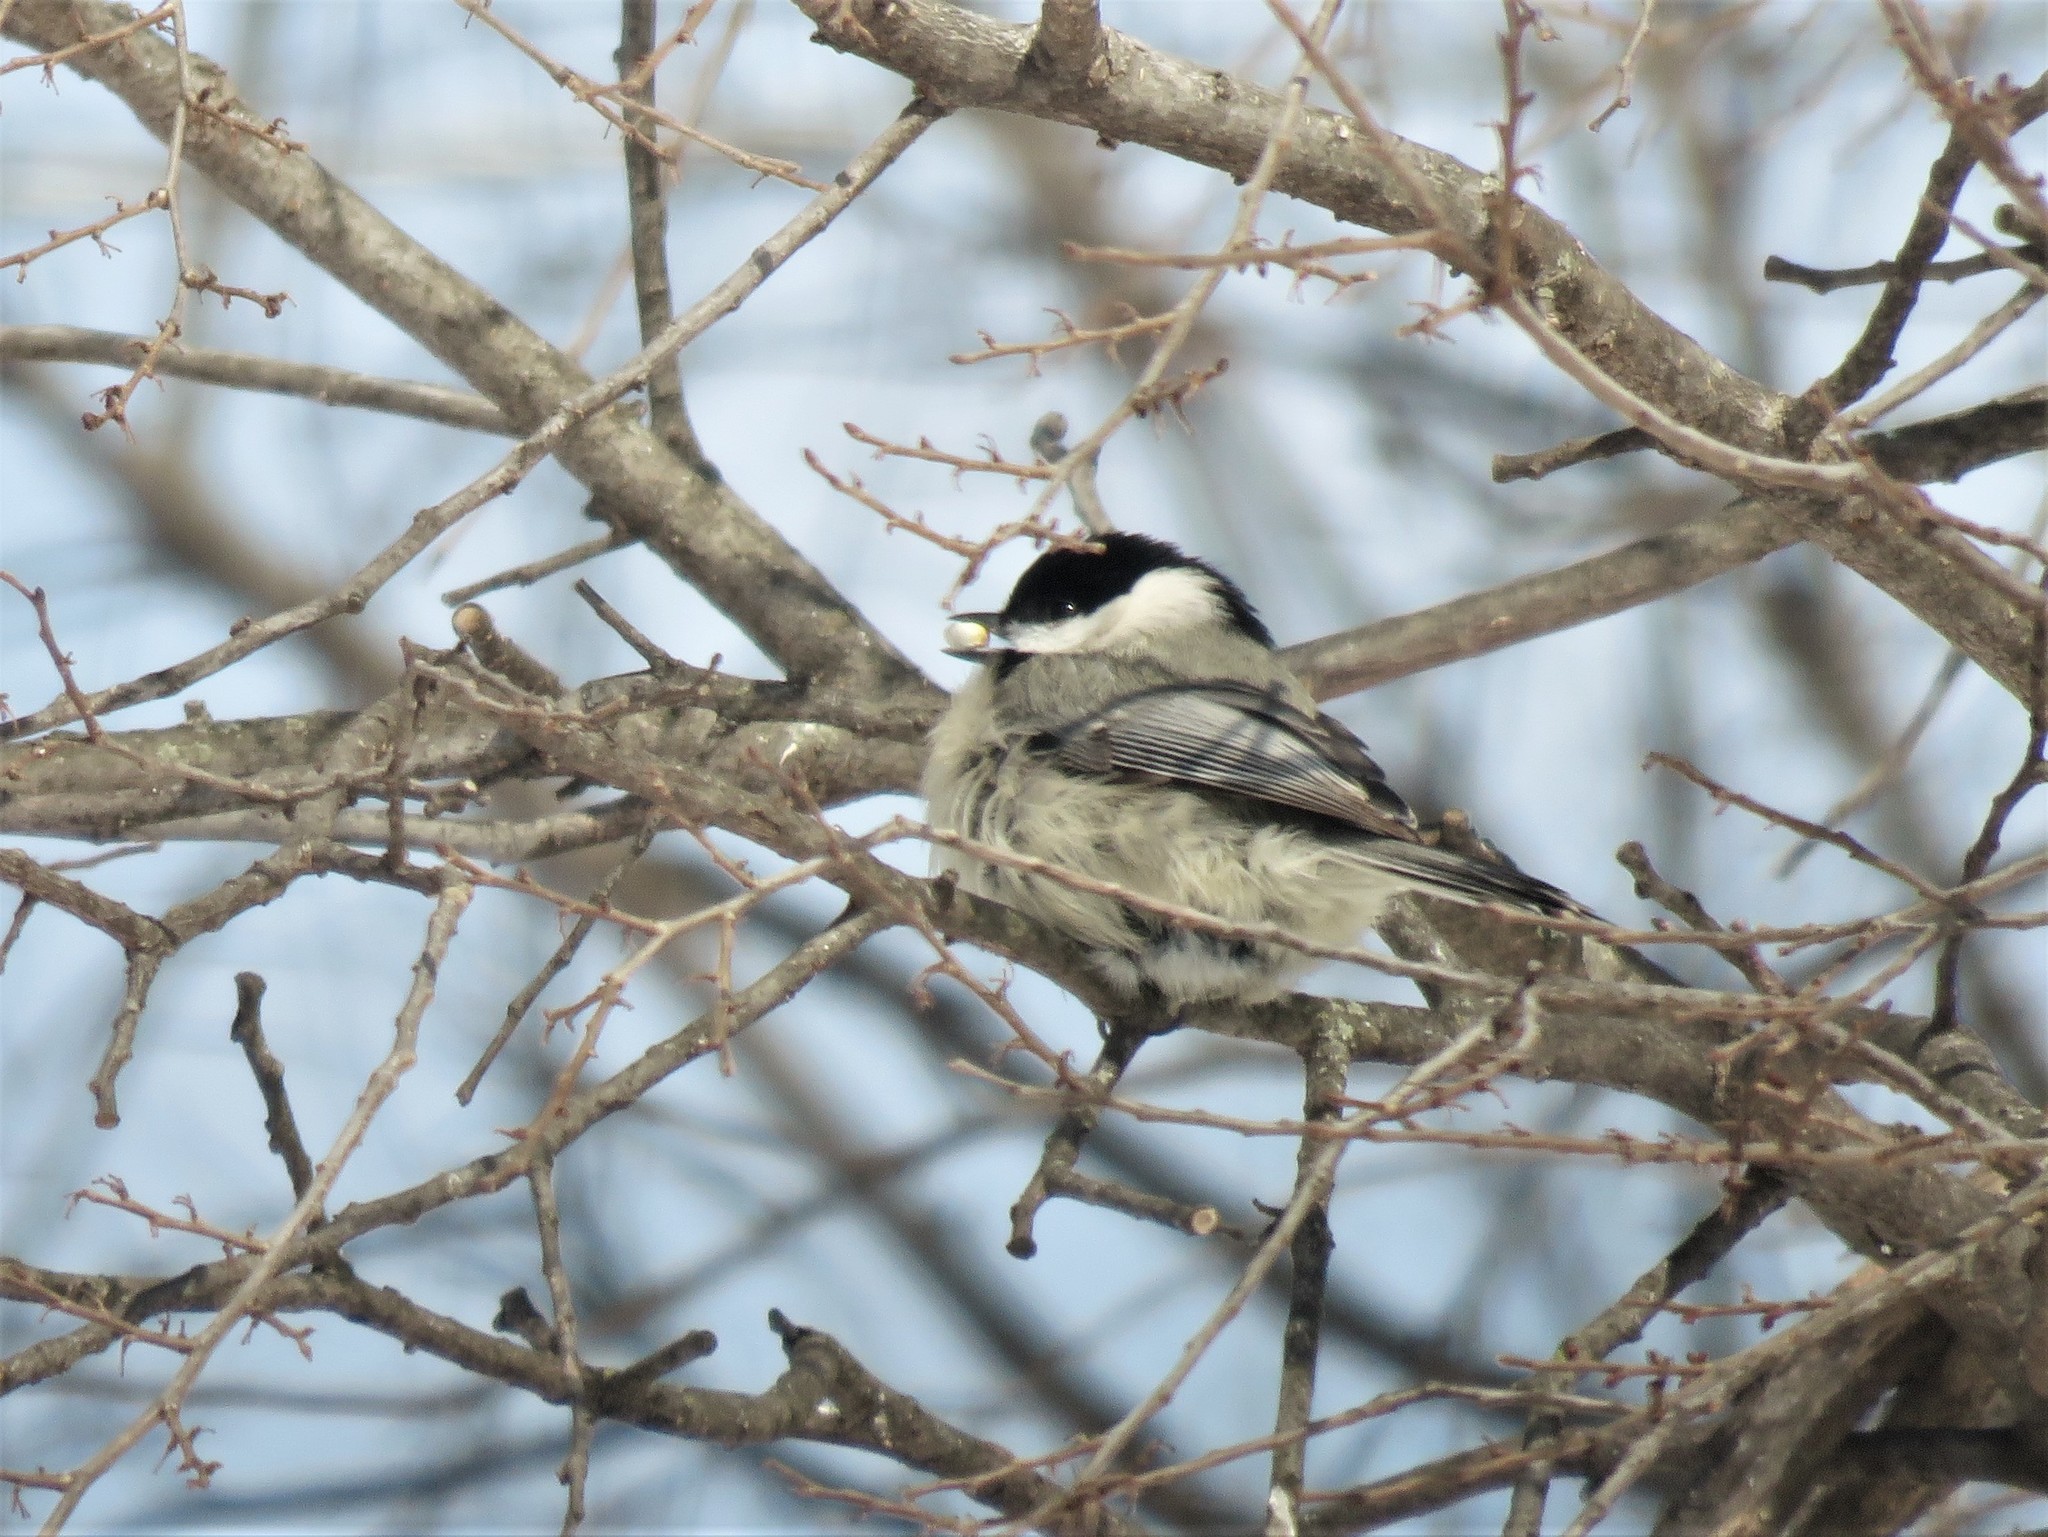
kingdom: Animalia
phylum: Chordata
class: Aves
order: Passeriformes
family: Paridae
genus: Poecile
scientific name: Poecile carolinensis
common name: Carolina chickadee
